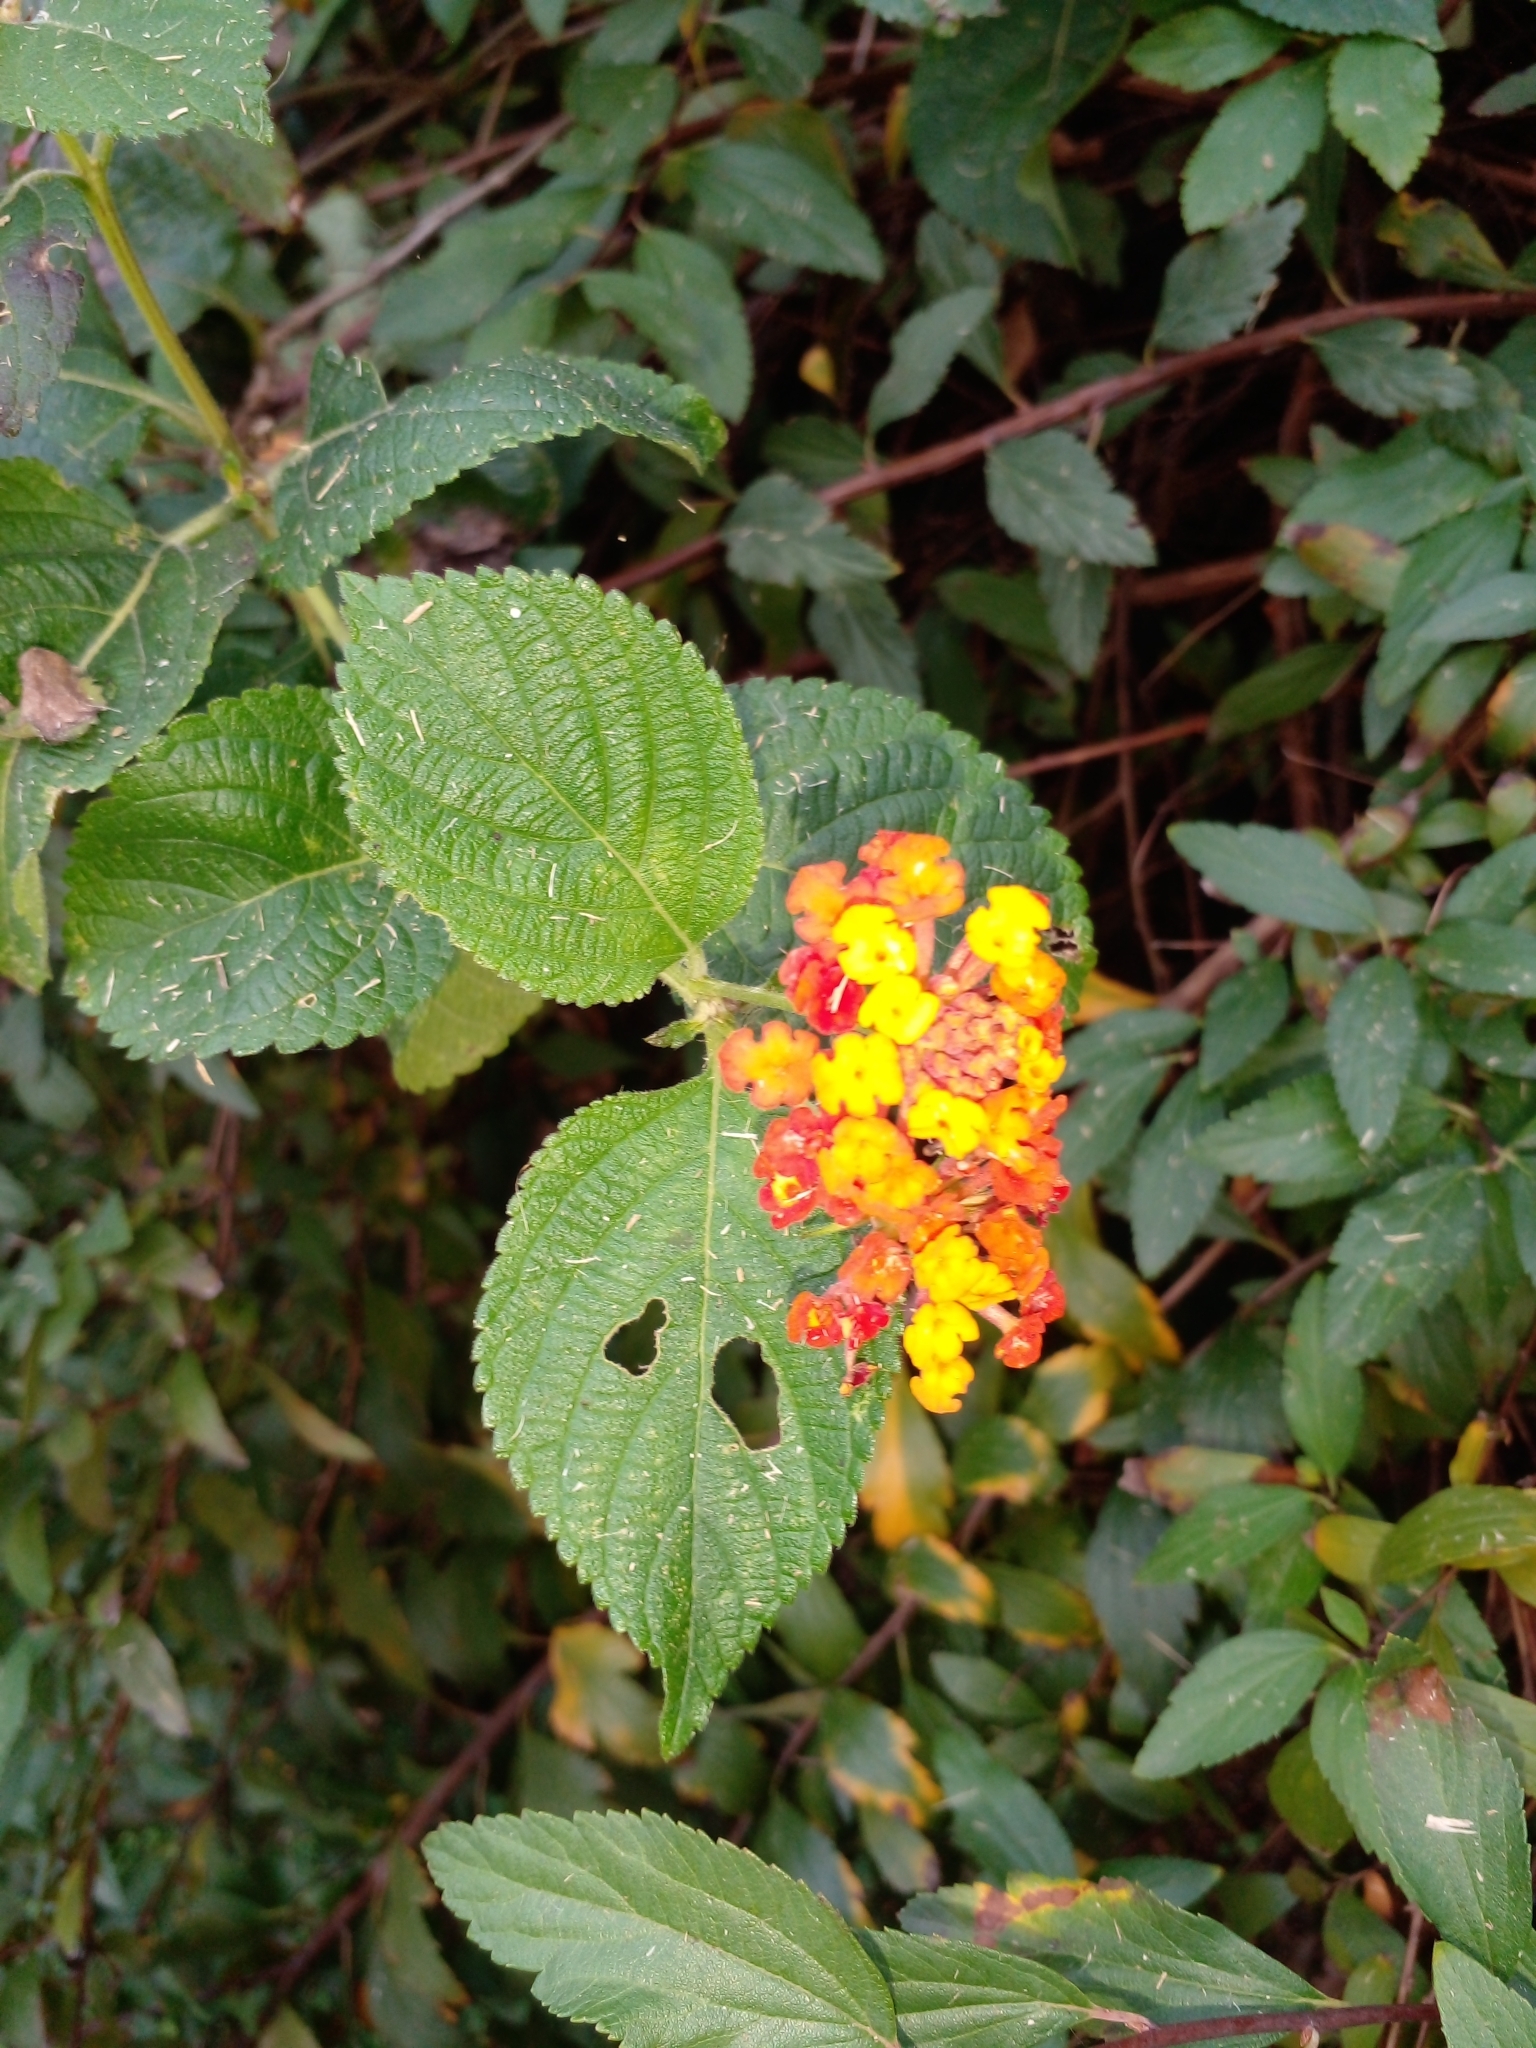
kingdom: Plantae
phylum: Tracheophyta
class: Magnoliopsida
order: Lamiales
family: Verbenaceae
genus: Lantana
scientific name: Lantana camara
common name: Lantana
